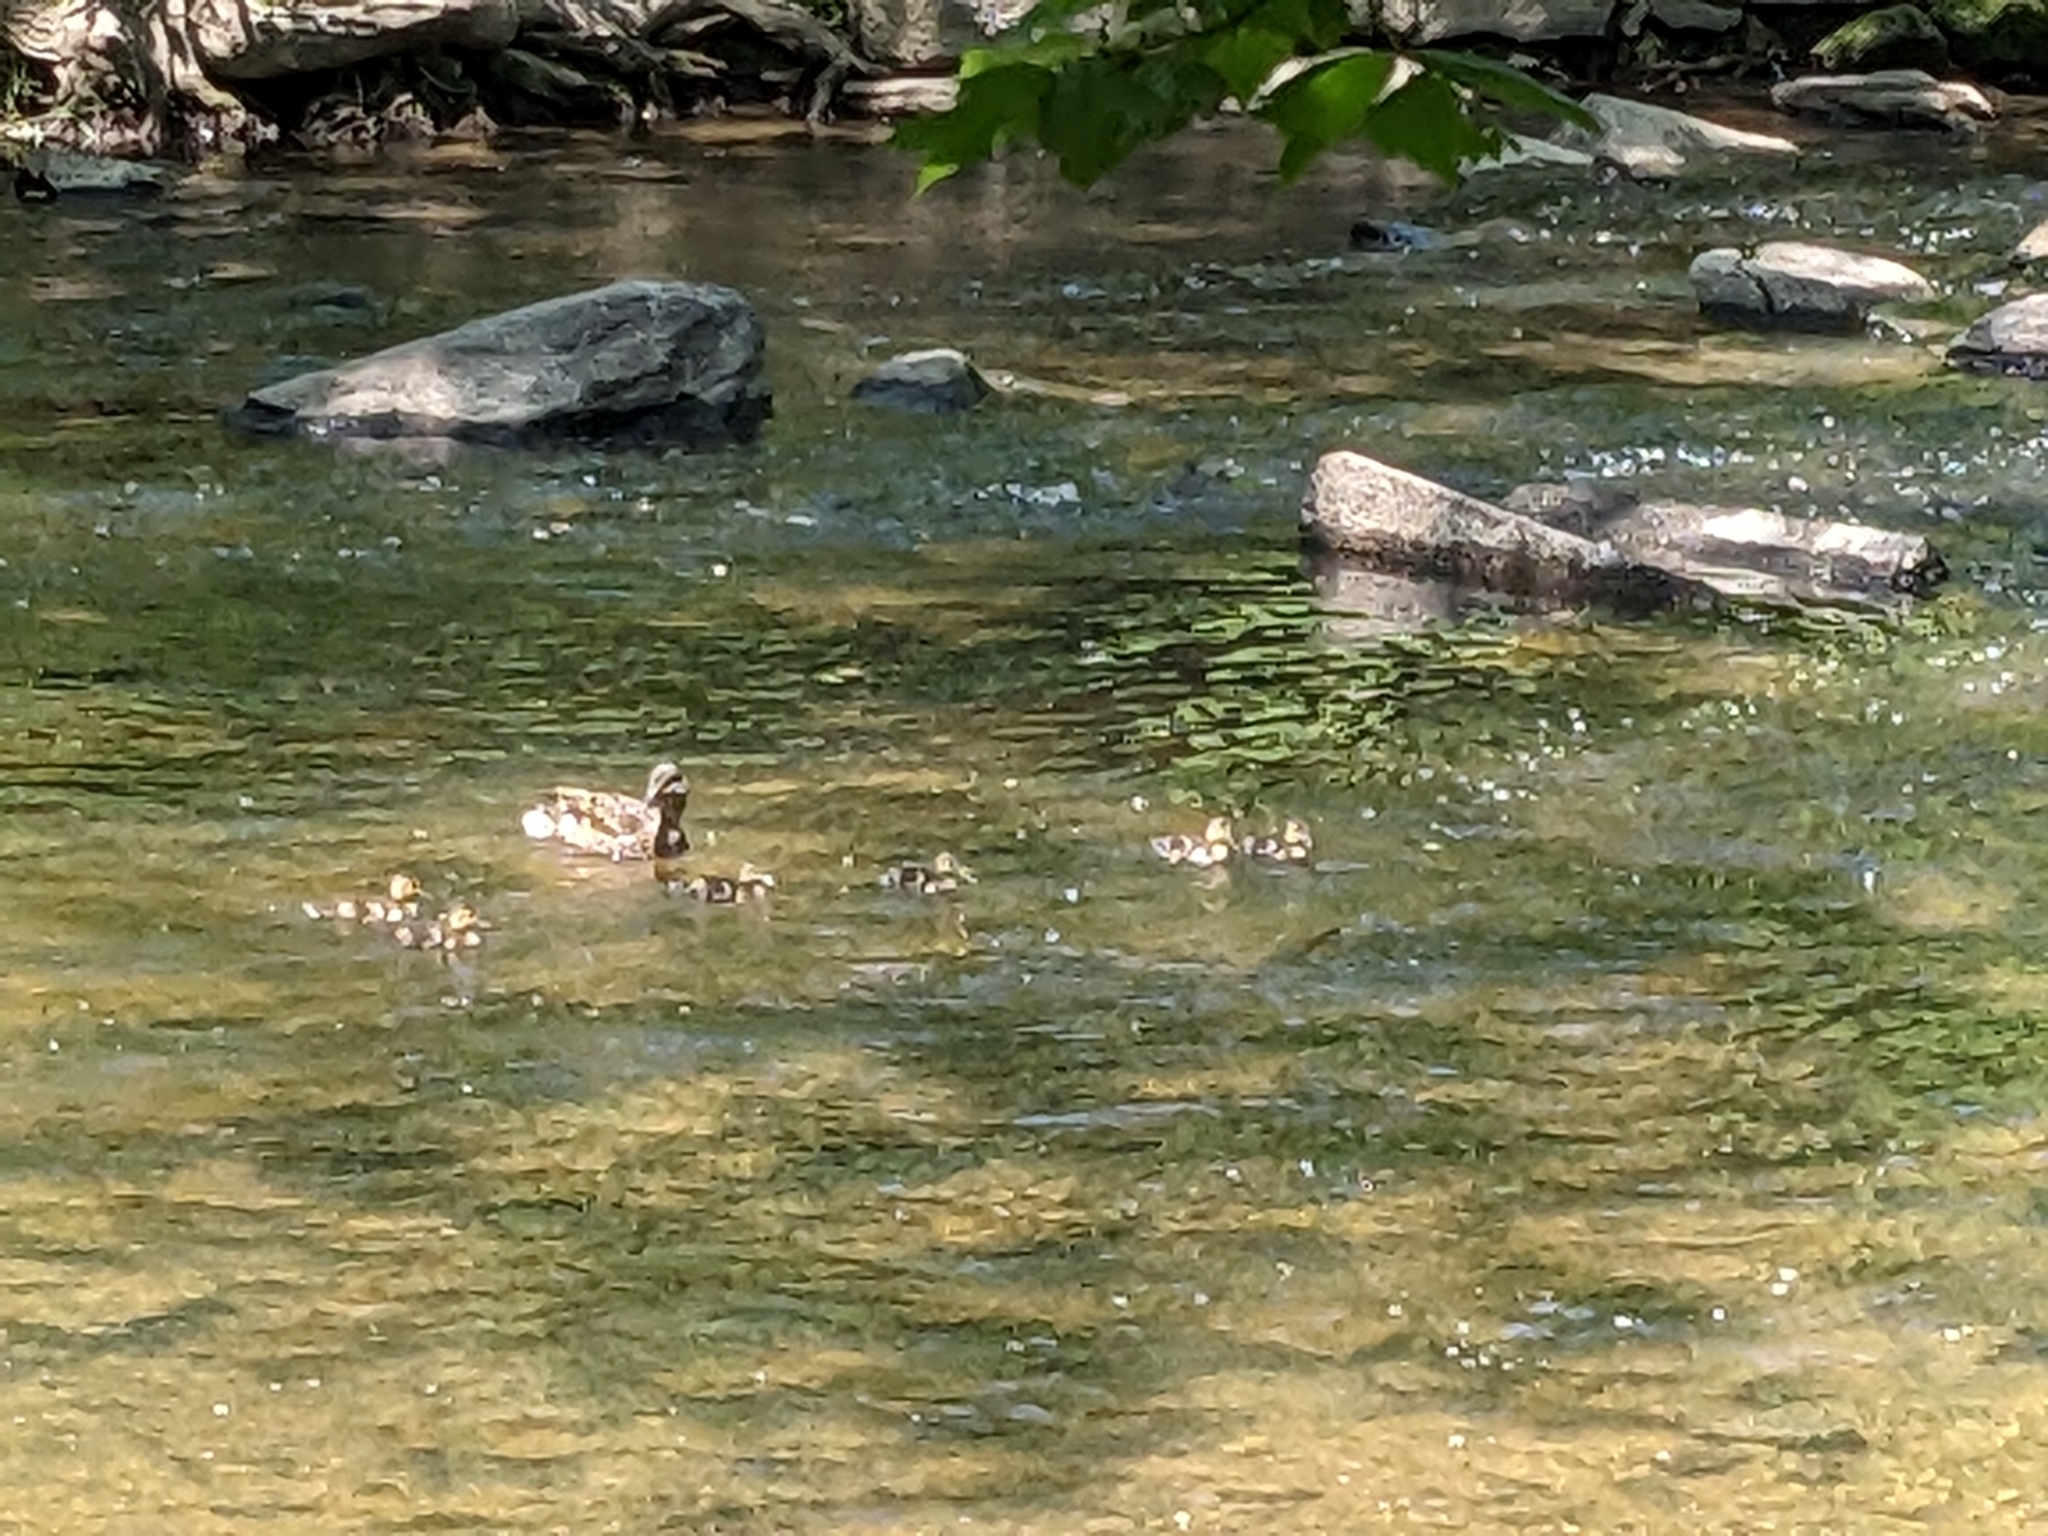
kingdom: Animalia
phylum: Chordata
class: Aves
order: Anseriformes
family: Anatidae
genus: Anas
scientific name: Anas platyrhynchos
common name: Mallard
